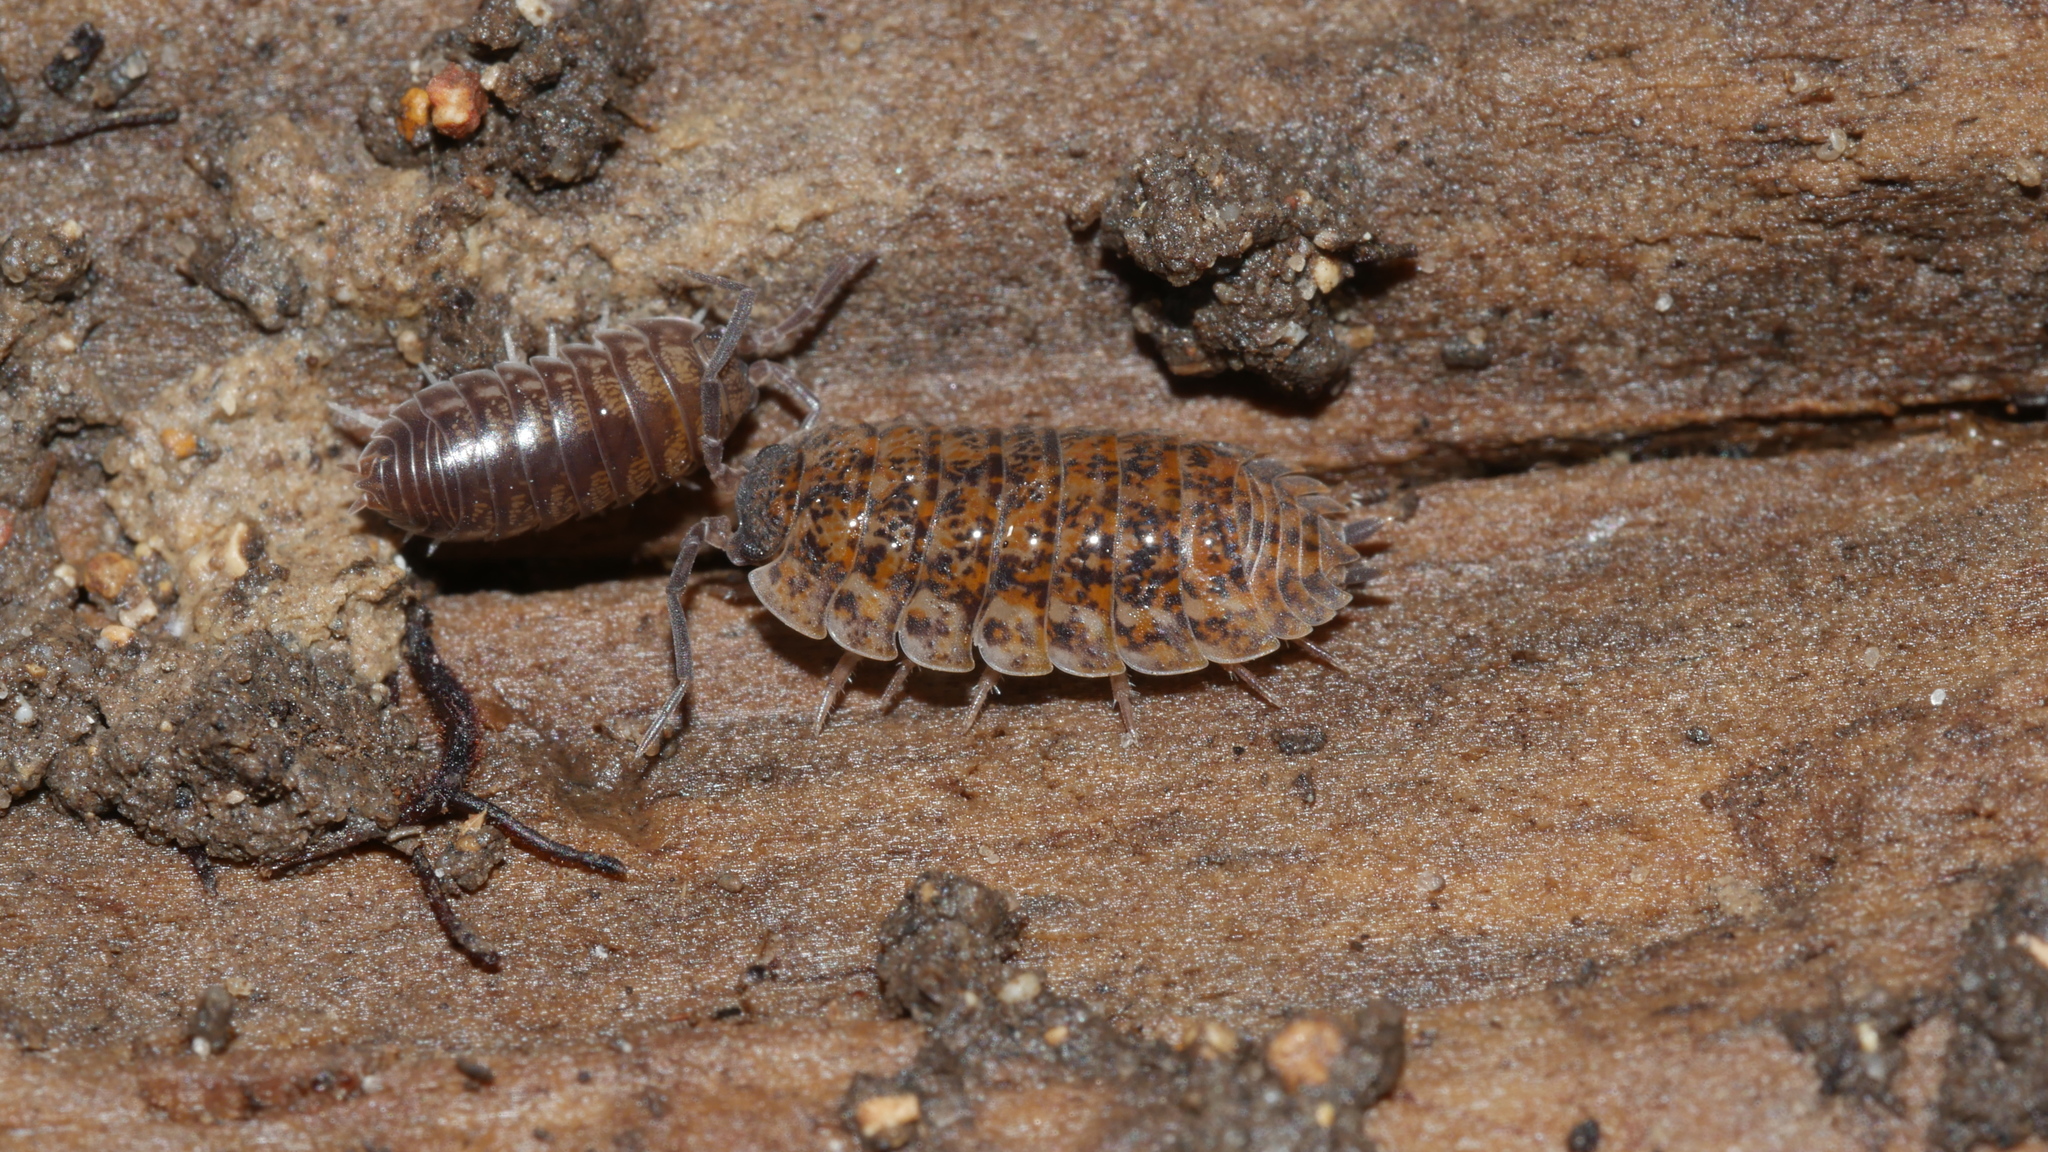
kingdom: Animalia
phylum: Arthropoda
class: Malacostraca
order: Isopoda
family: Trachelipodidae
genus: Trachelipus
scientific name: Trachelipus rathkii
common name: Isopod
